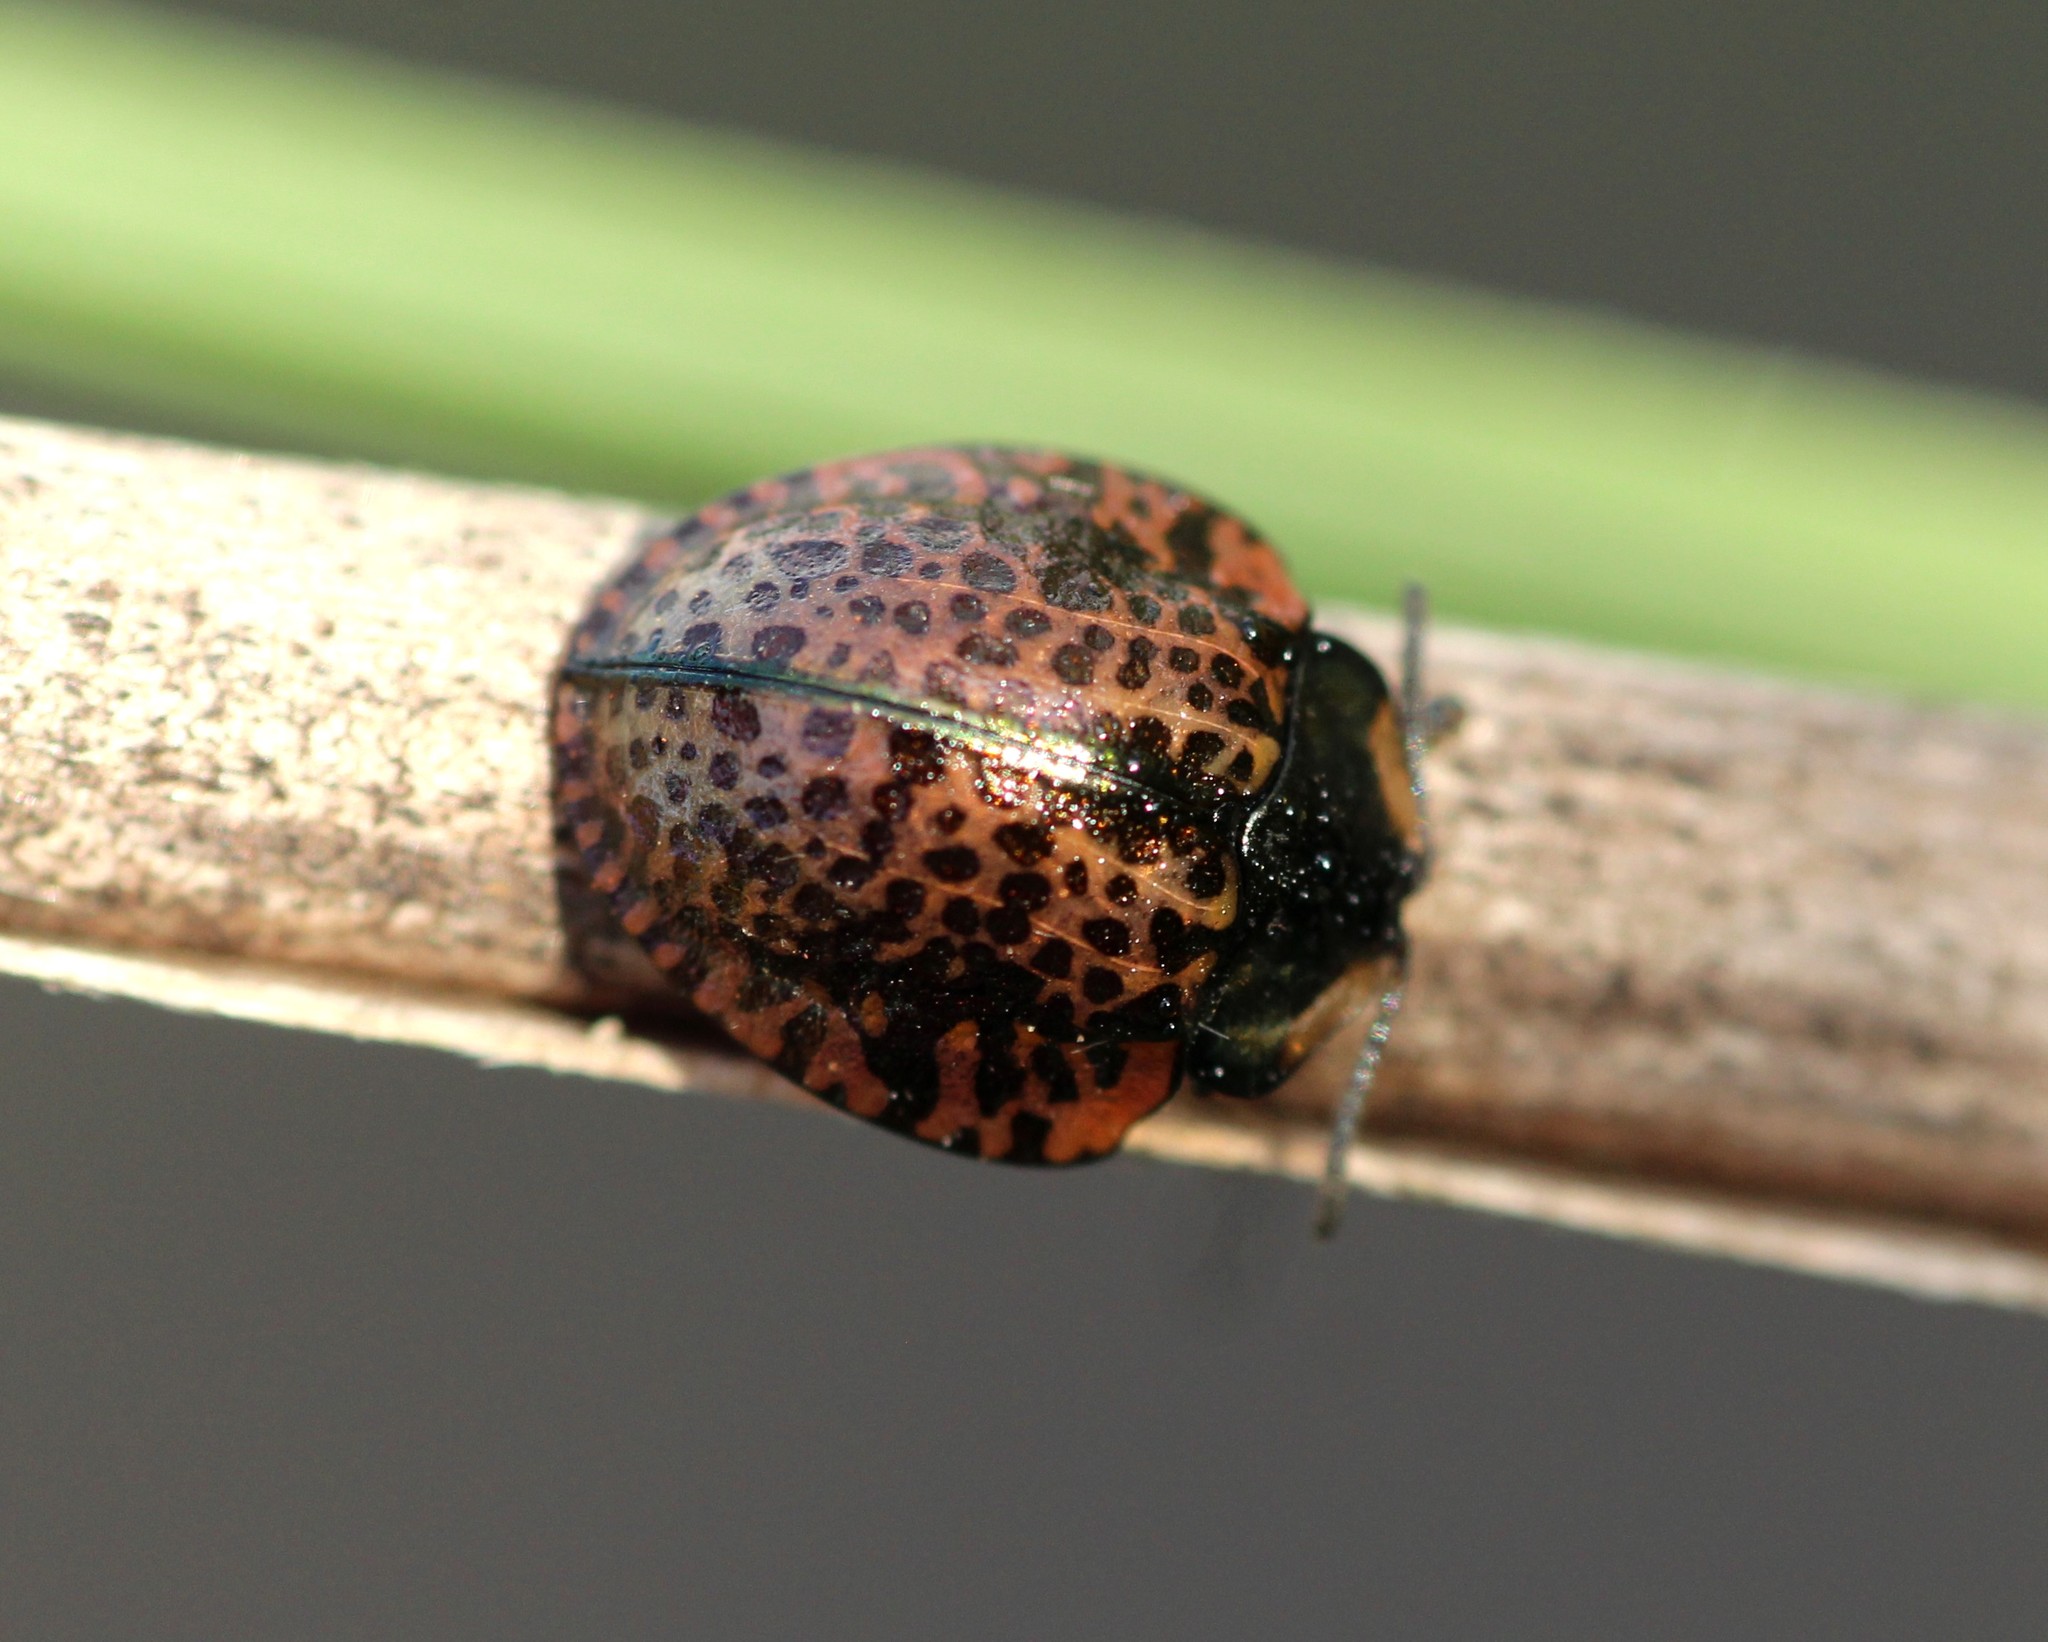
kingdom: Animalia
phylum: Arthropoda
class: Insecta
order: Coleoptera
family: Chrysomelidae
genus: Stolas
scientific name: Stolas lacordairei
